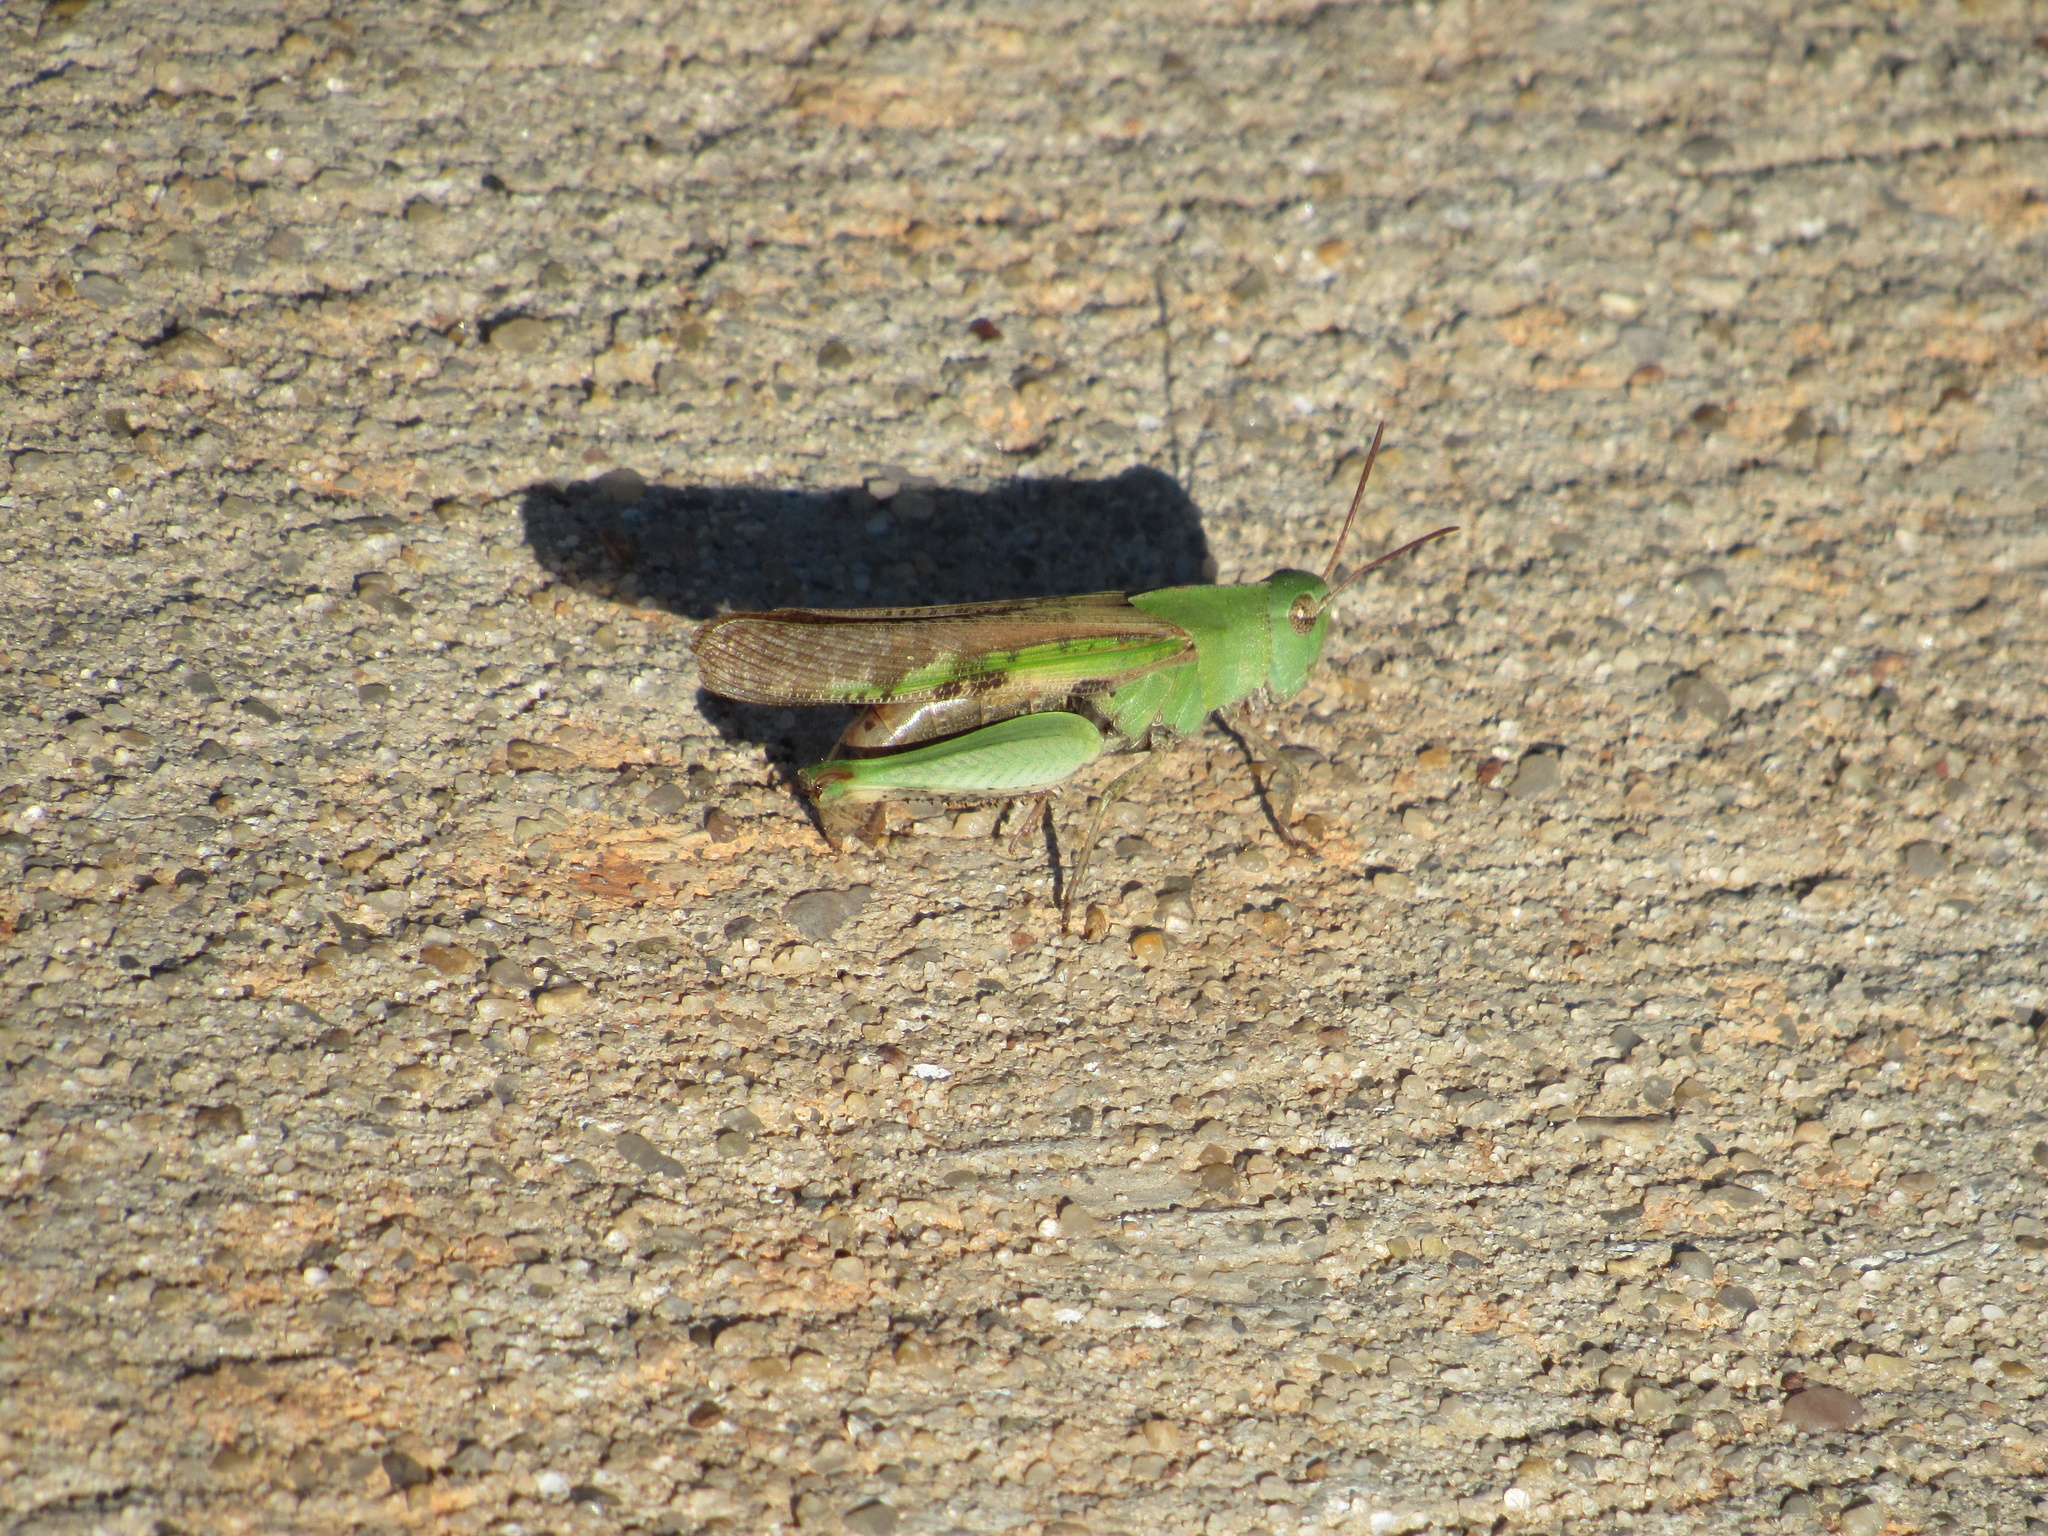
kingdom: Animalia
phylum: Arthropoda
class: Insecta
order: Orthoptera
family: Acrididae
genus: Chortophaga
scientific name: Chortophaga viridifasciata
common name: Green-striped grasshopper
